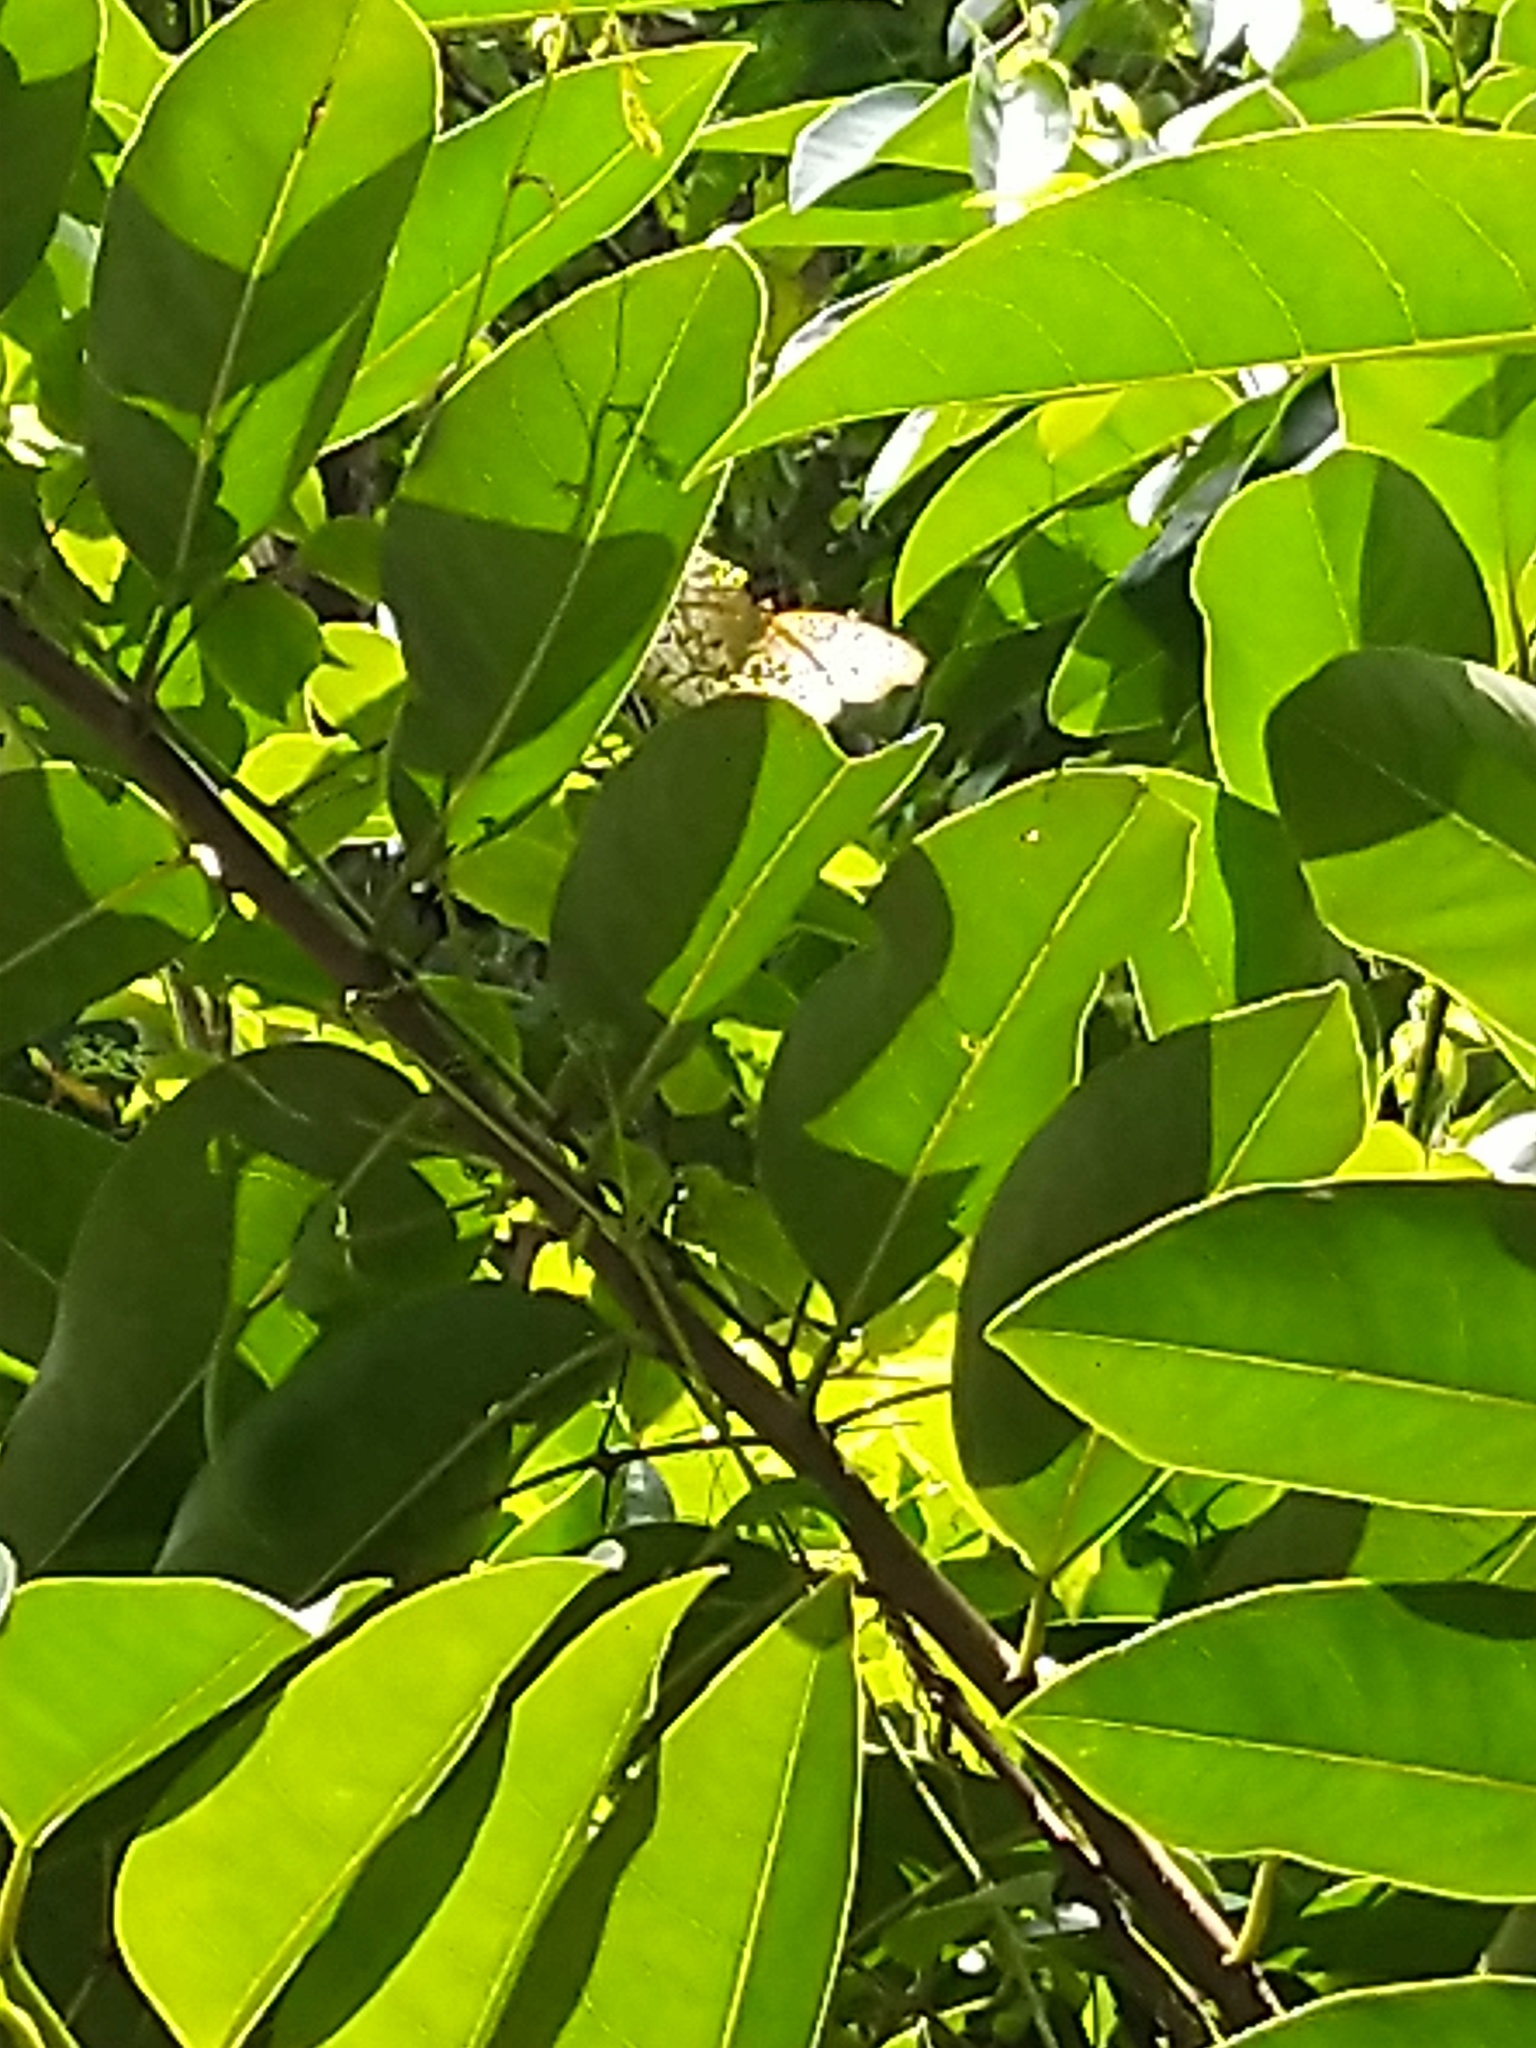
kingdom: Animalia
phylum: Arthropoda
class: Insecta
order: Lepidoptera
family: Nymphalidae
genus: Junonia
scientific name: Junonia atlites
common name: Grey pansy
